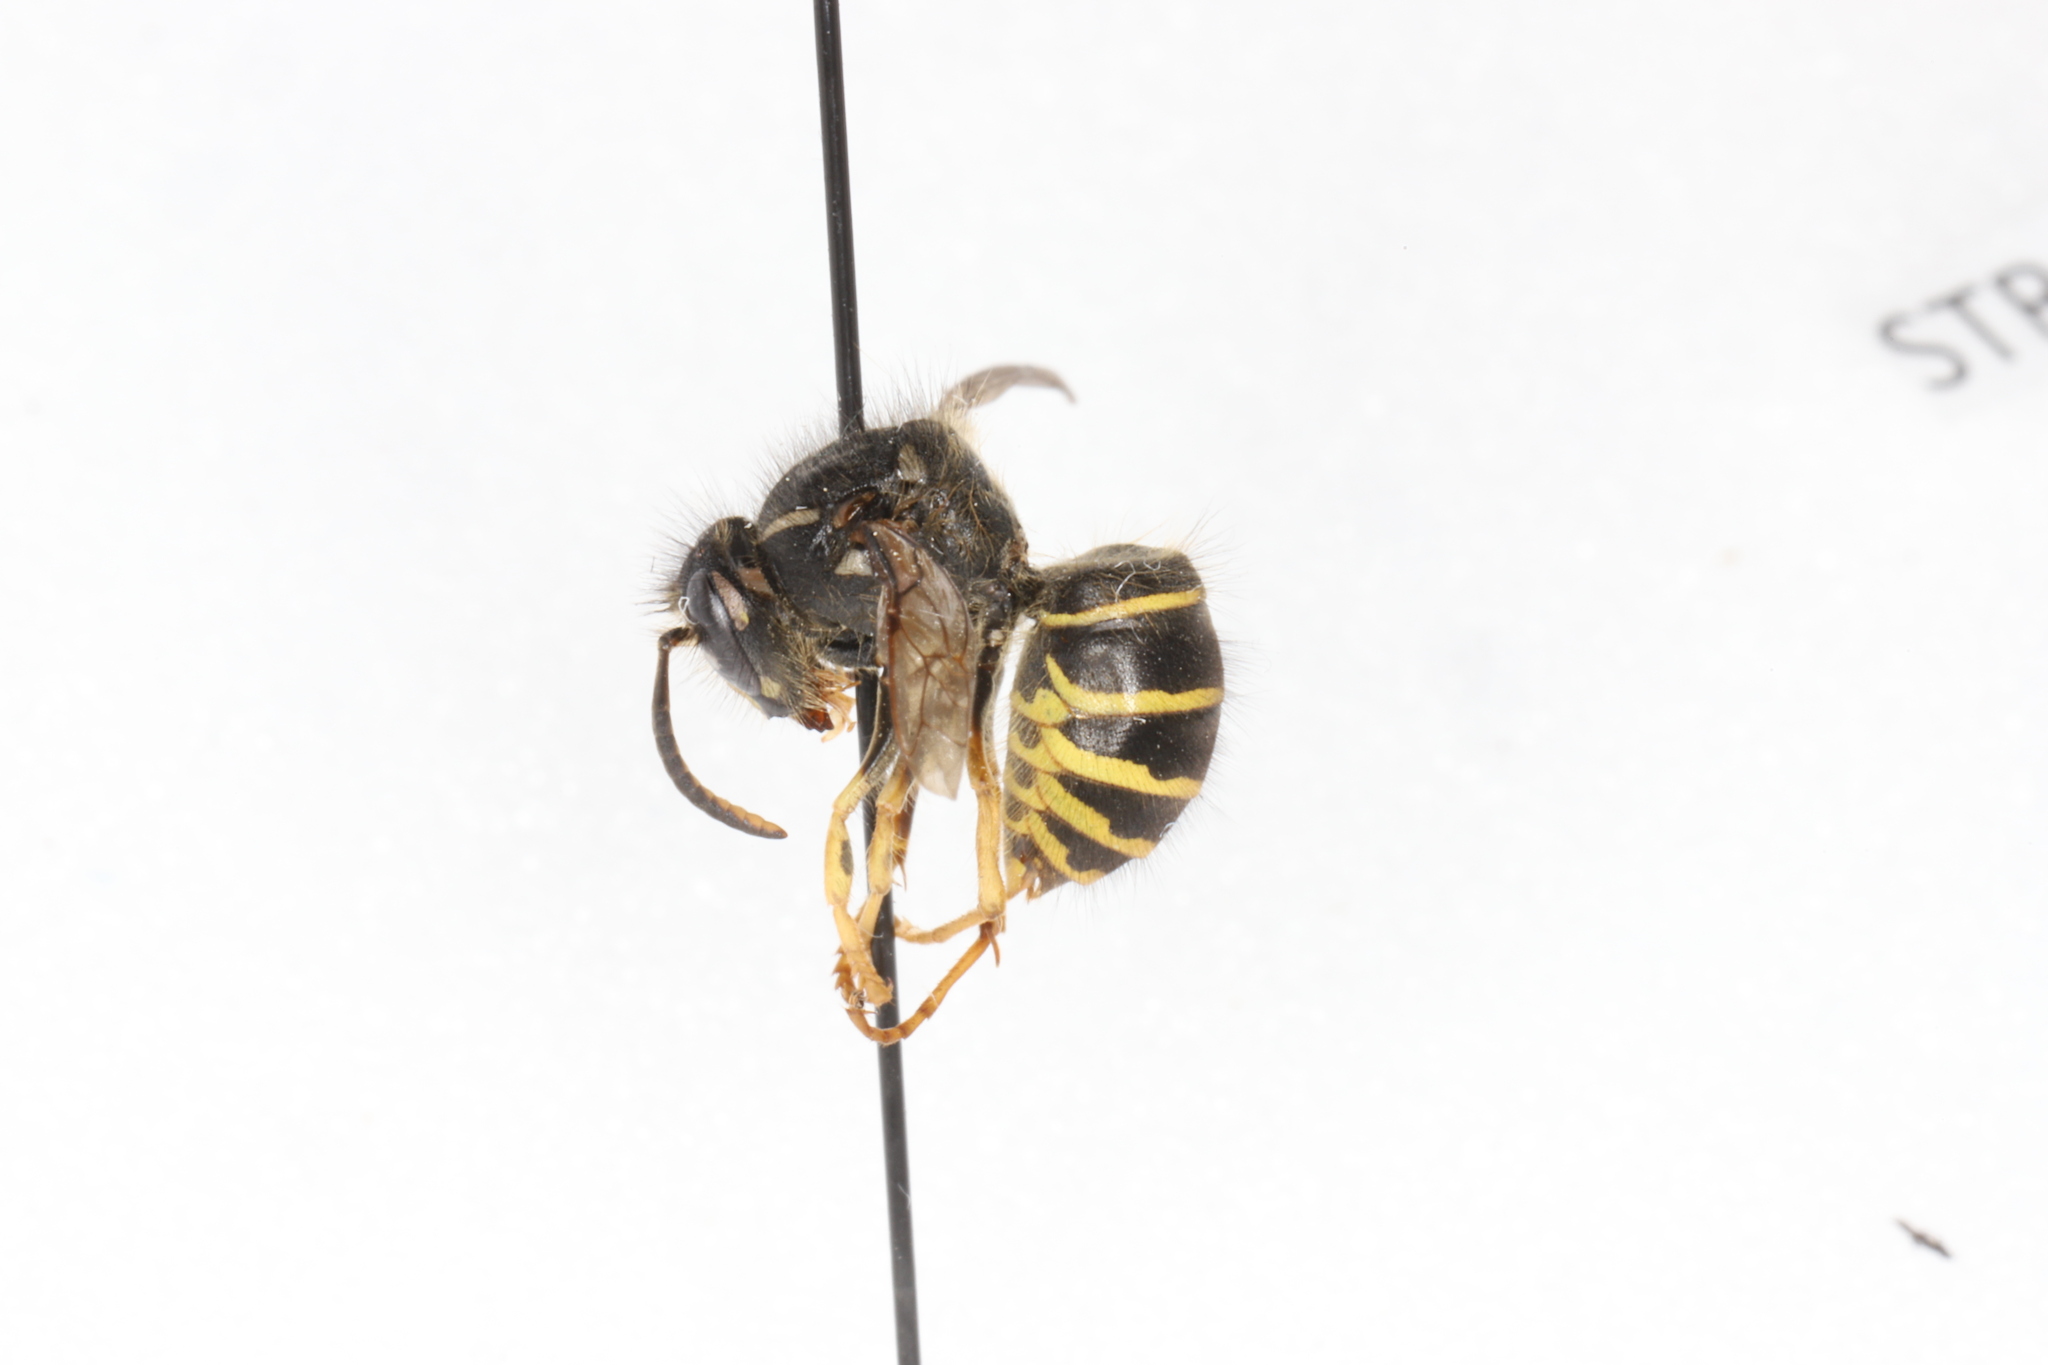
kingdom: Animalia
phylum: Arthropoda
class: Insecta
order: Hymenoptera
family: Vespidae
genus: Dolichovespula
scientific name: Dolichovespula norvegicoides
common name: Northern aerial yellowjacket
